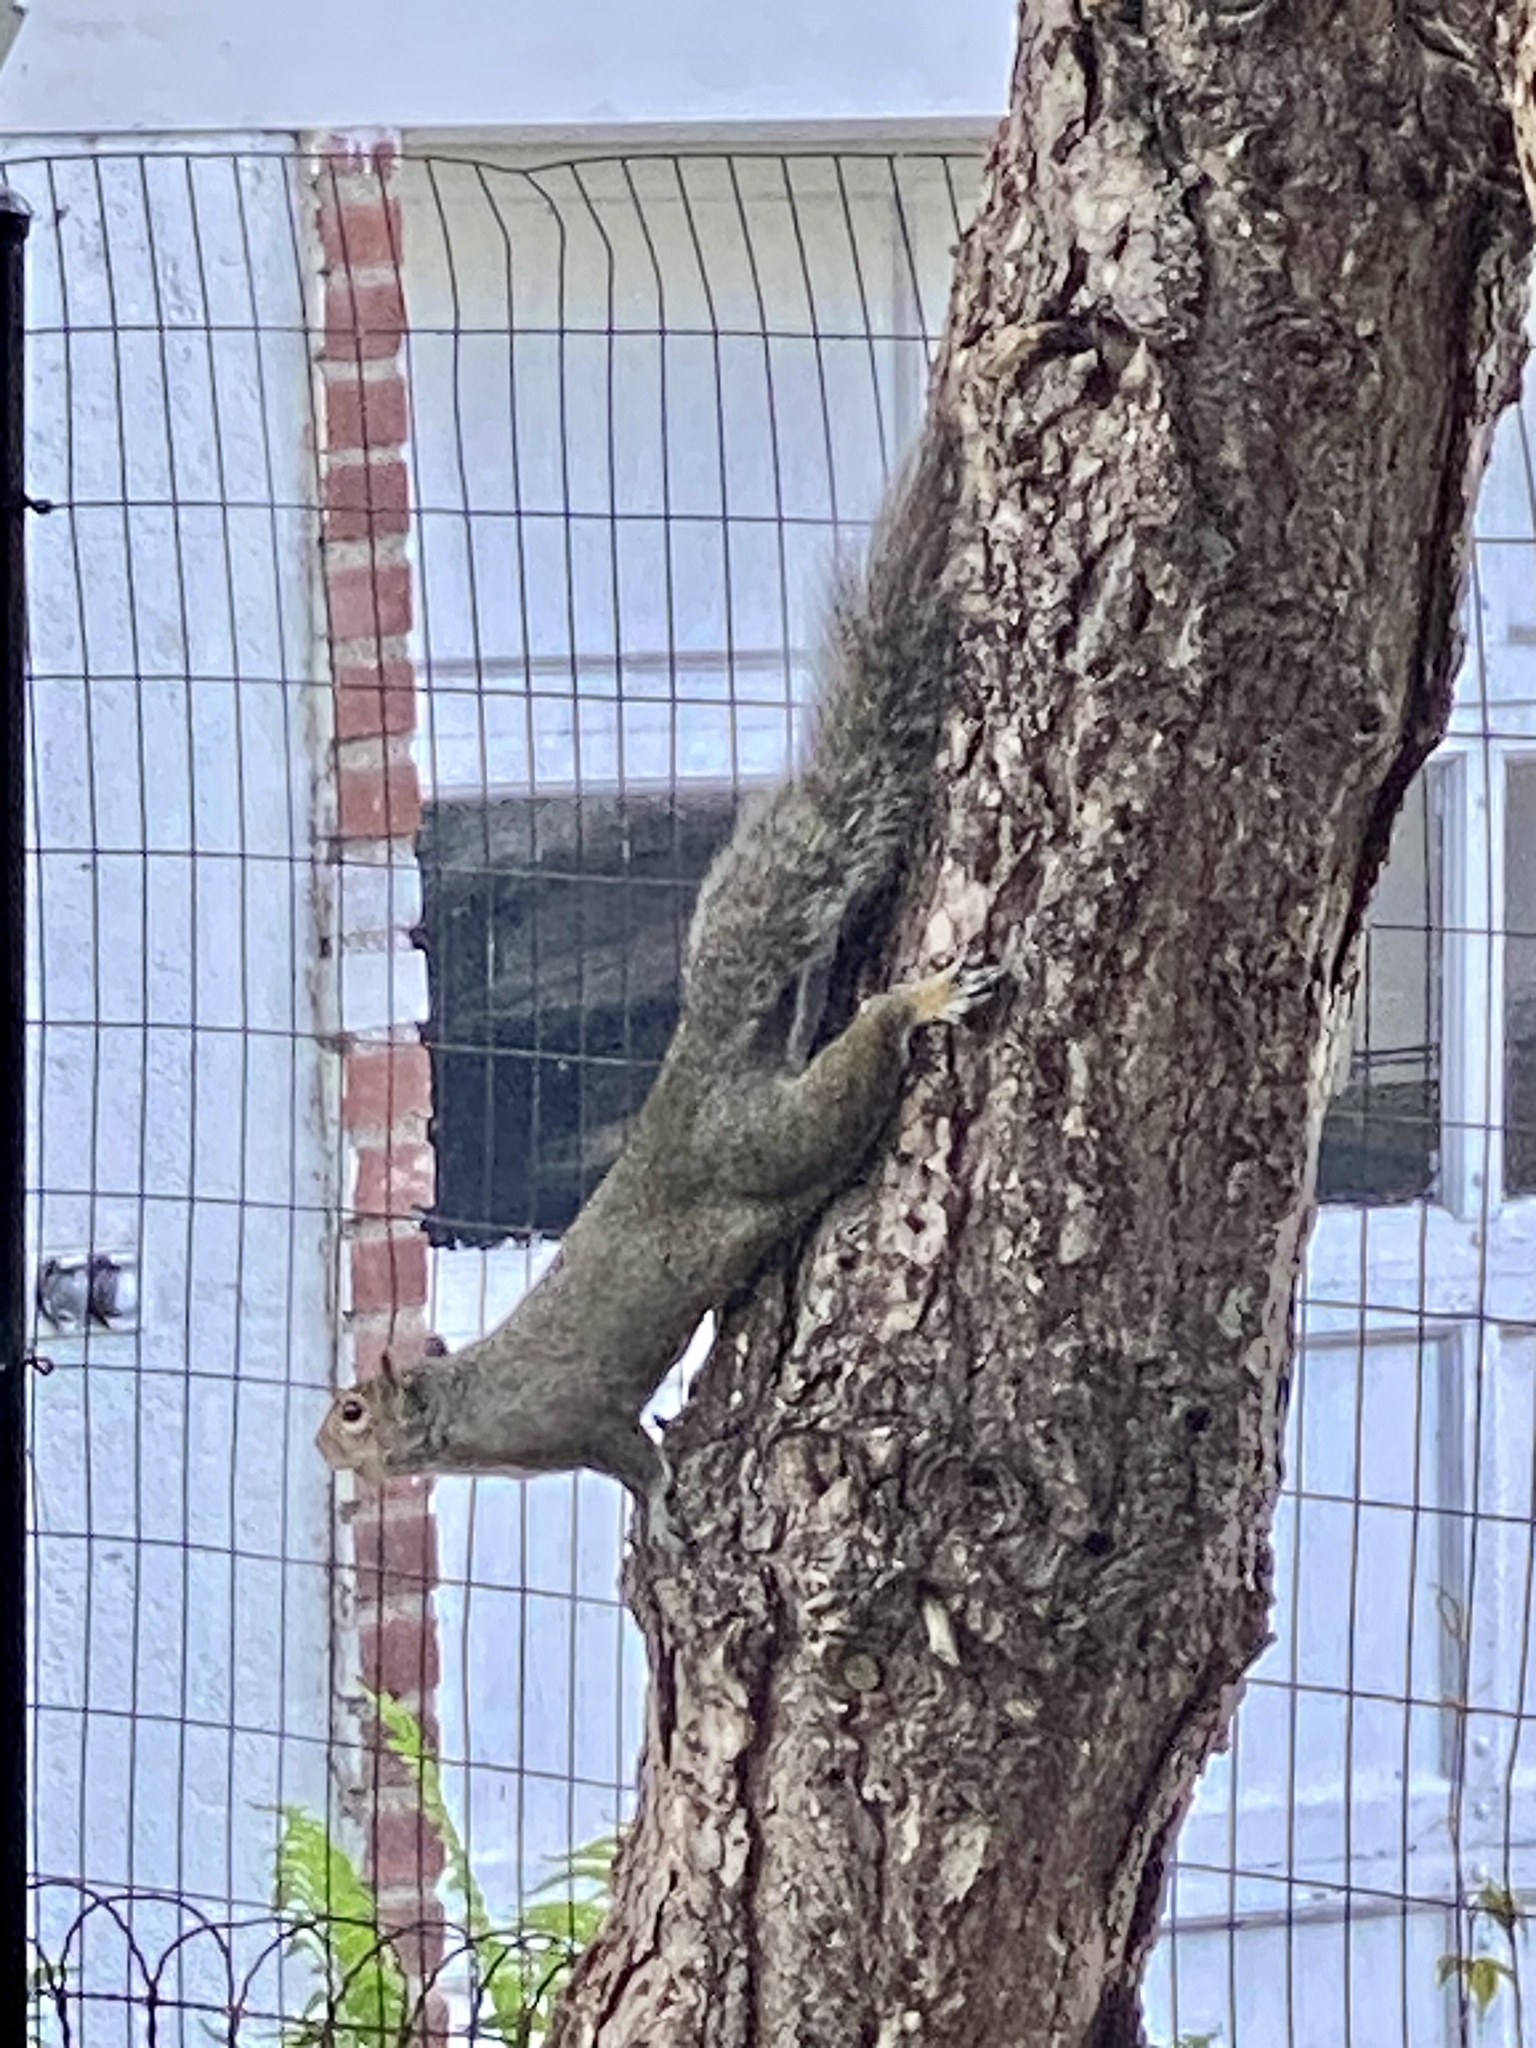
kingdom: Animalia
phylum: Chordata
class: Mammalia
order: Rodentia
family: Sciuridae
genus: Sciurus
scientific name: Sciurus carolinensis
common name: Eastern gray squirrel
